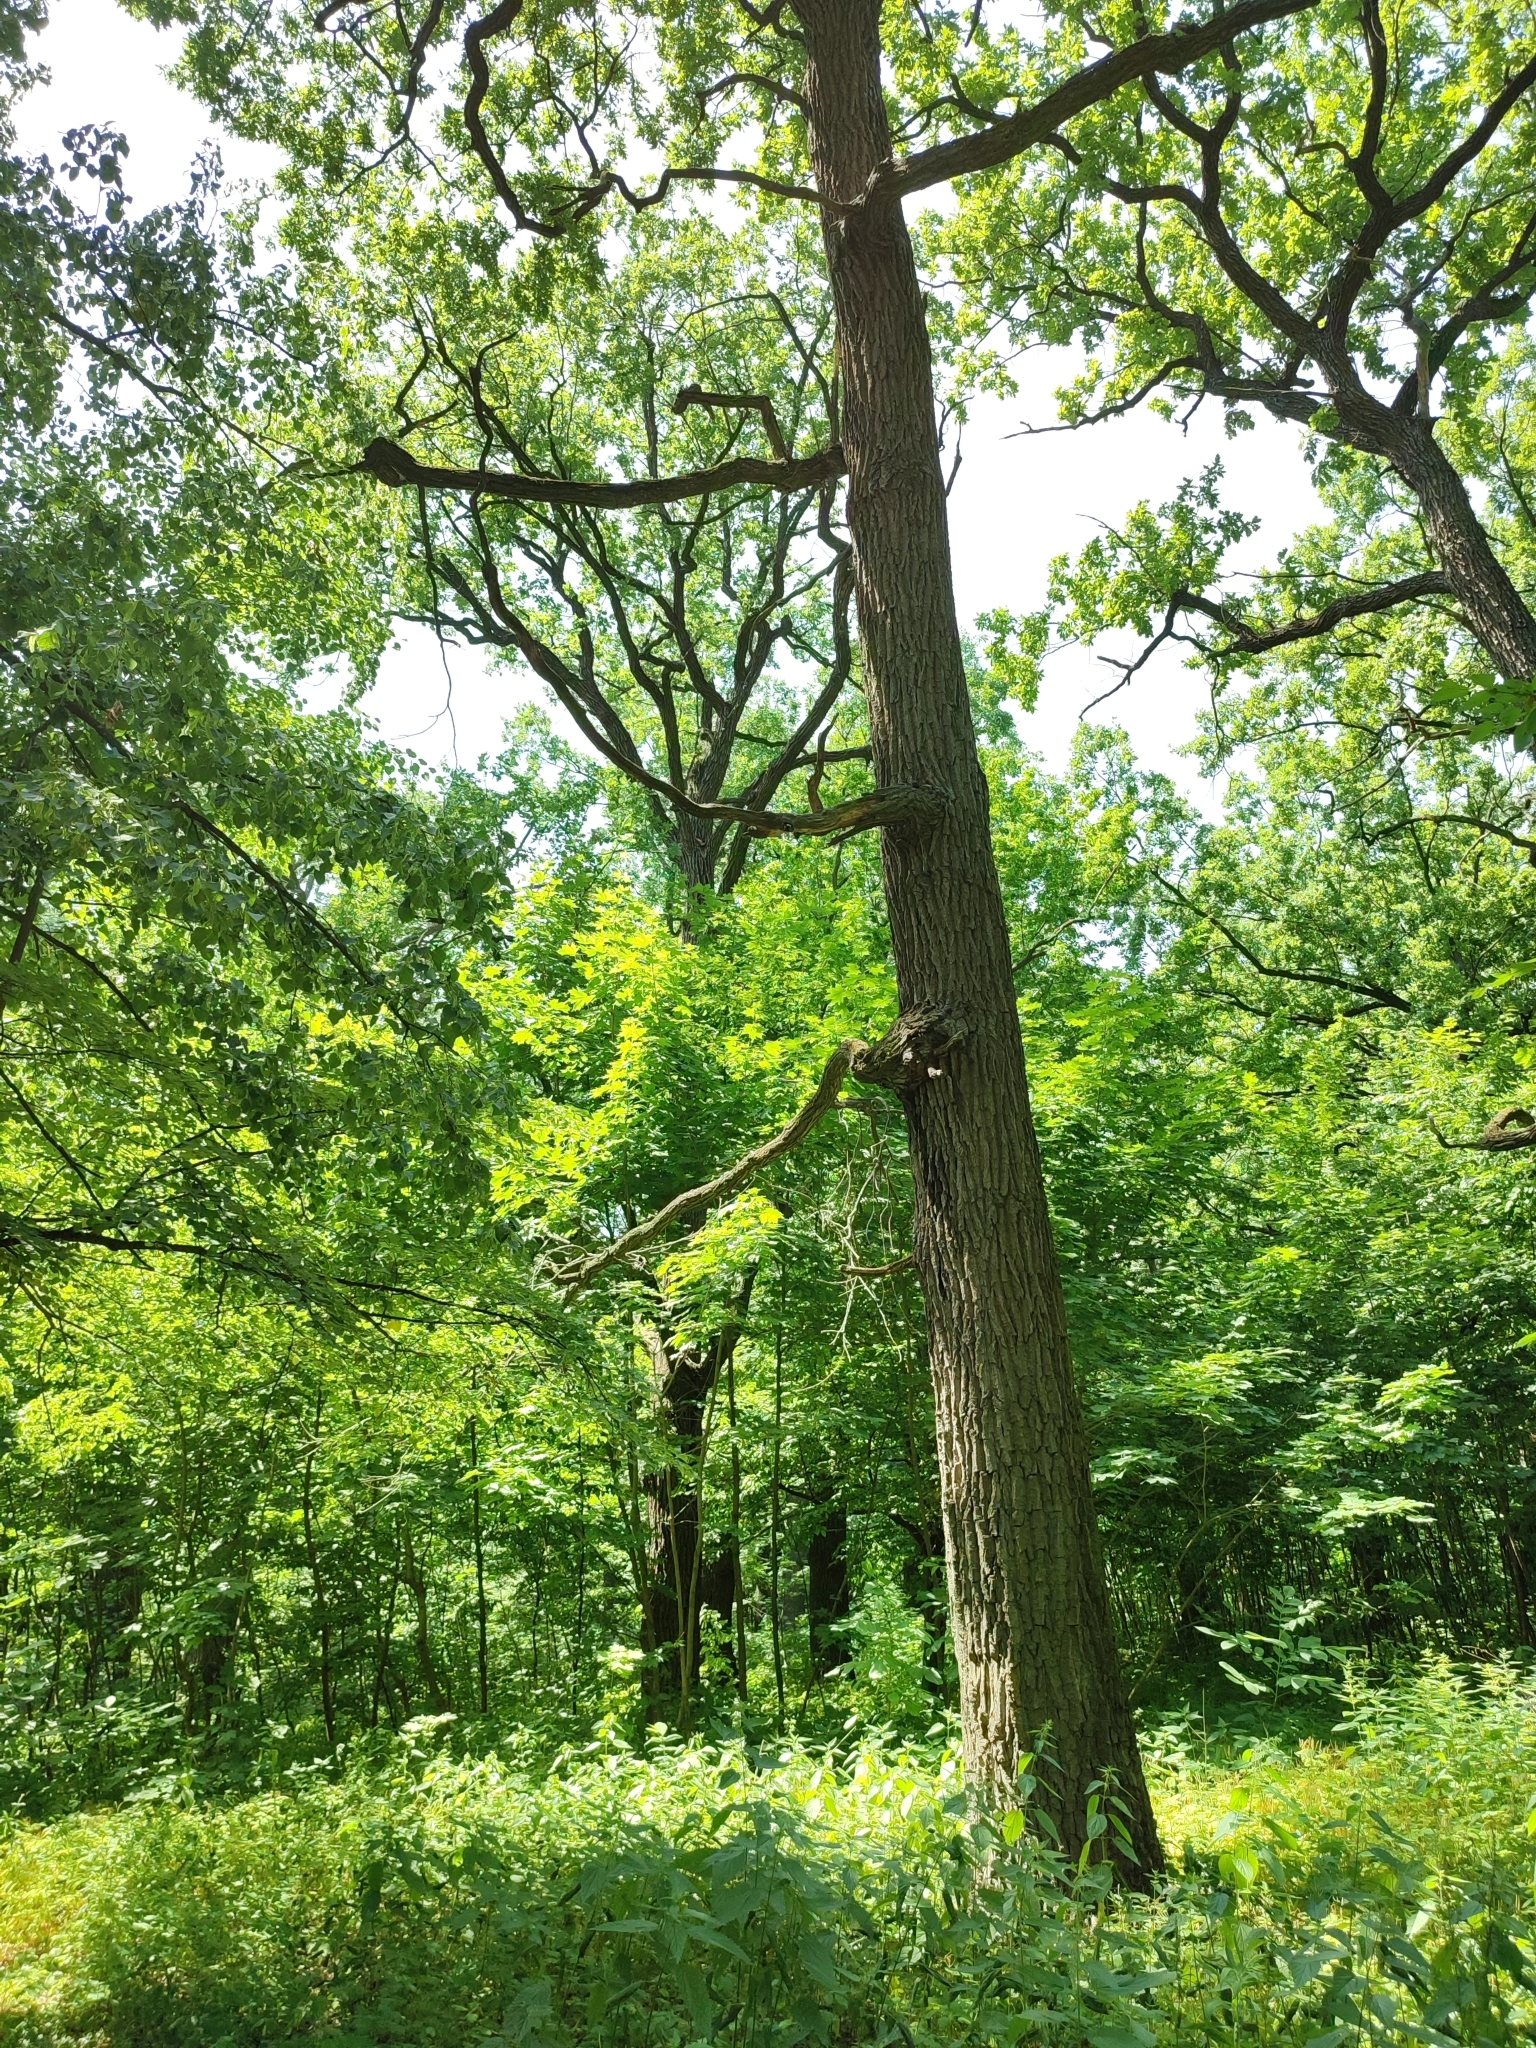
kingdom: Plantae
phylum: Tracheophyta
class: Magnoliopsida
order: Fagales
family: Fagaceae
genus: Quercus
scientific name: Quercus robur
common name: Pedunculate oak
